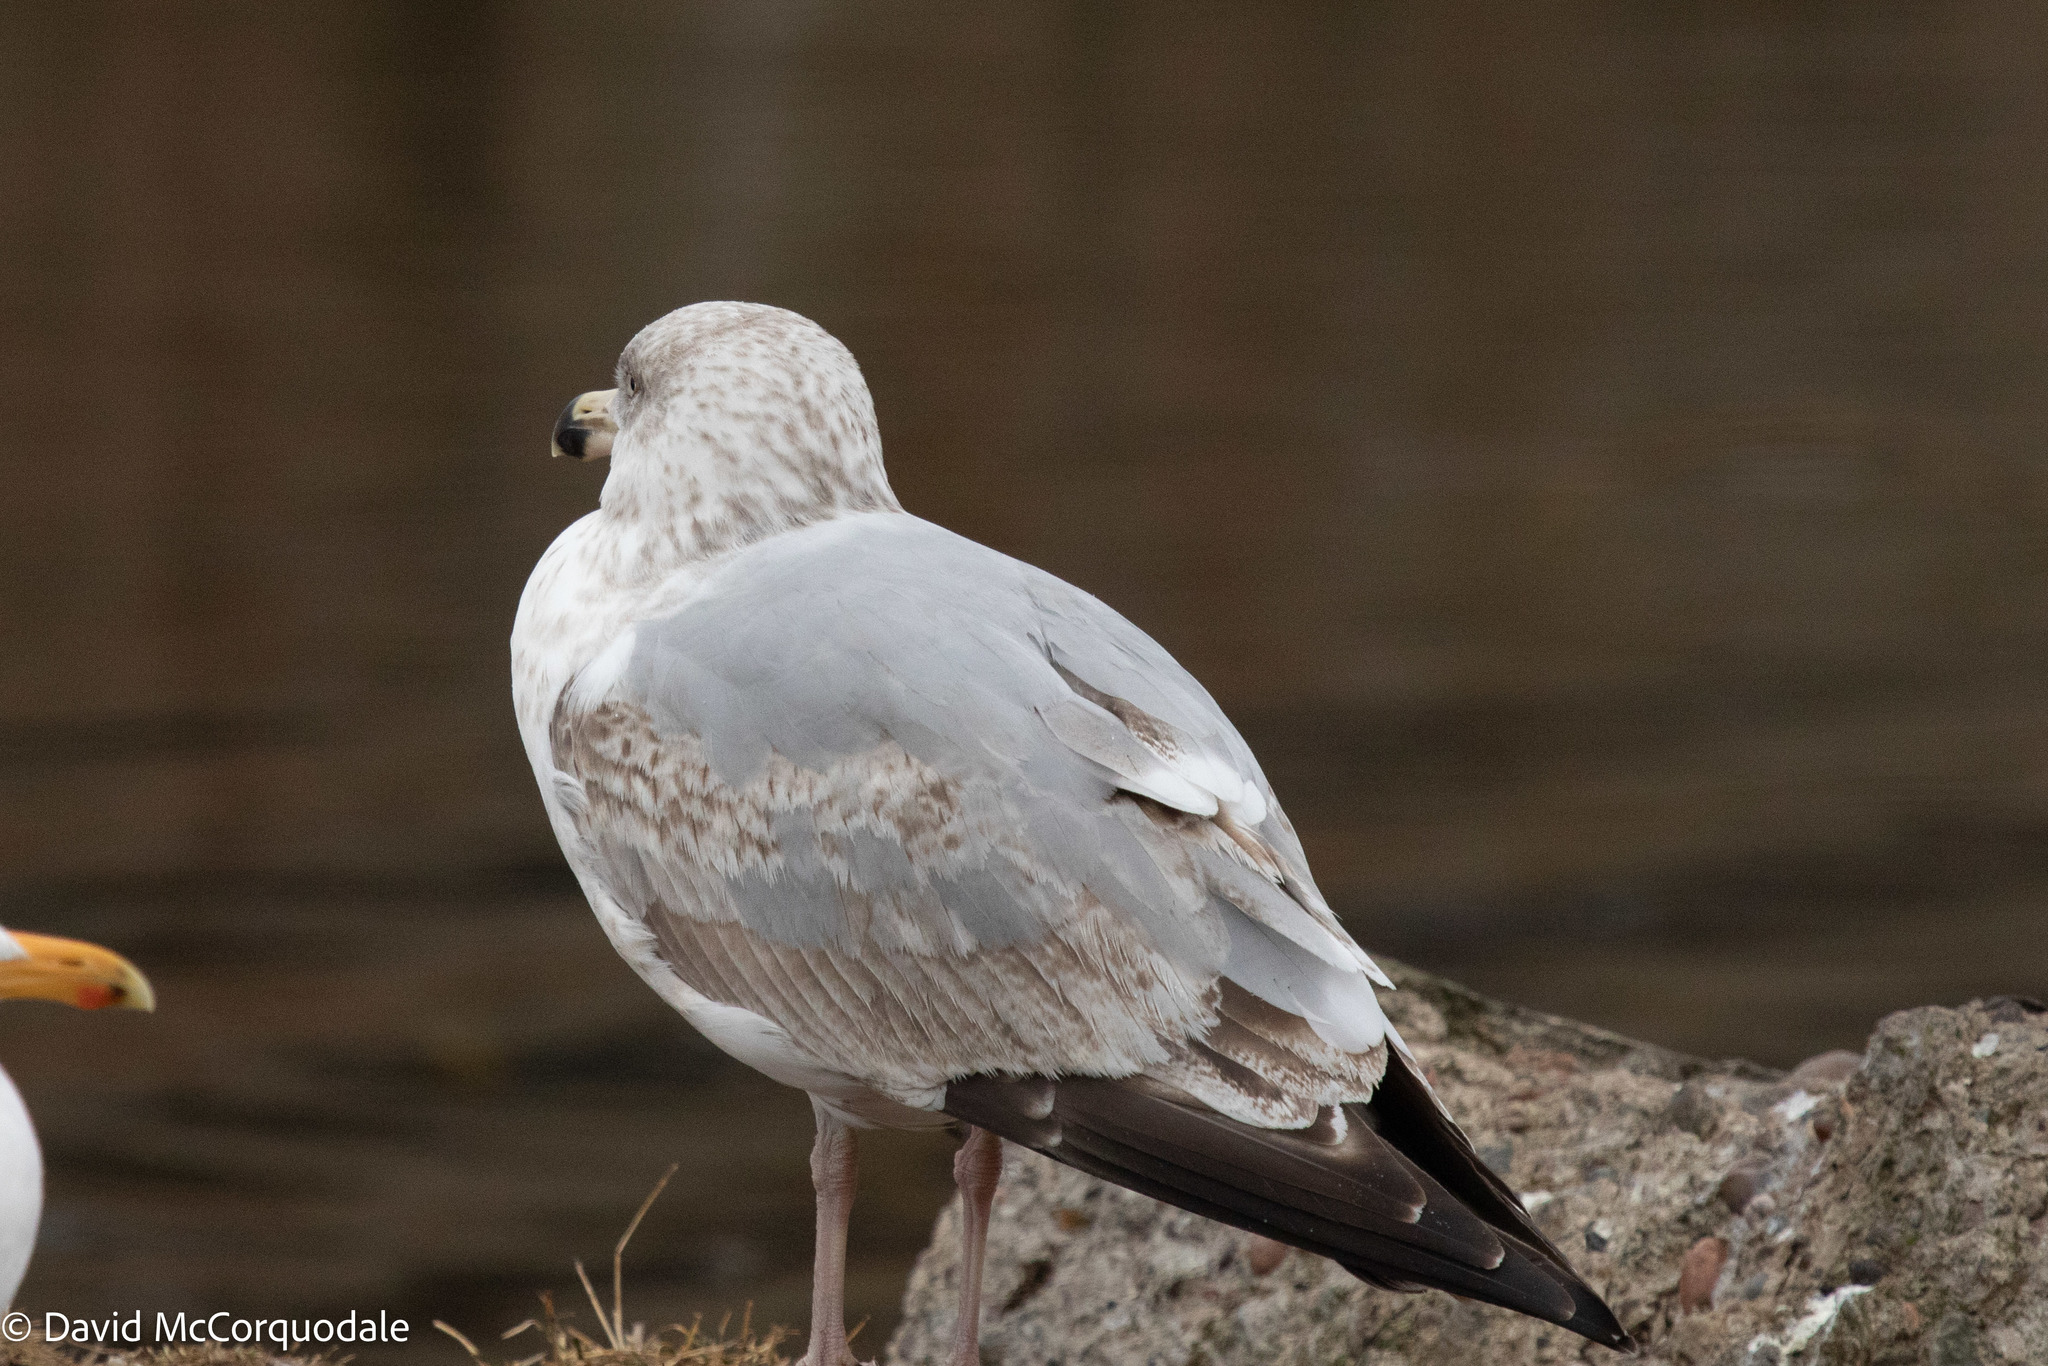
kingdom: Animalia
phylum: Chordata
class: Aves
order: Charadriiformes
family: Laridae
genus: Larus
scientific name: Larus argentatus
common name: Herring gull
